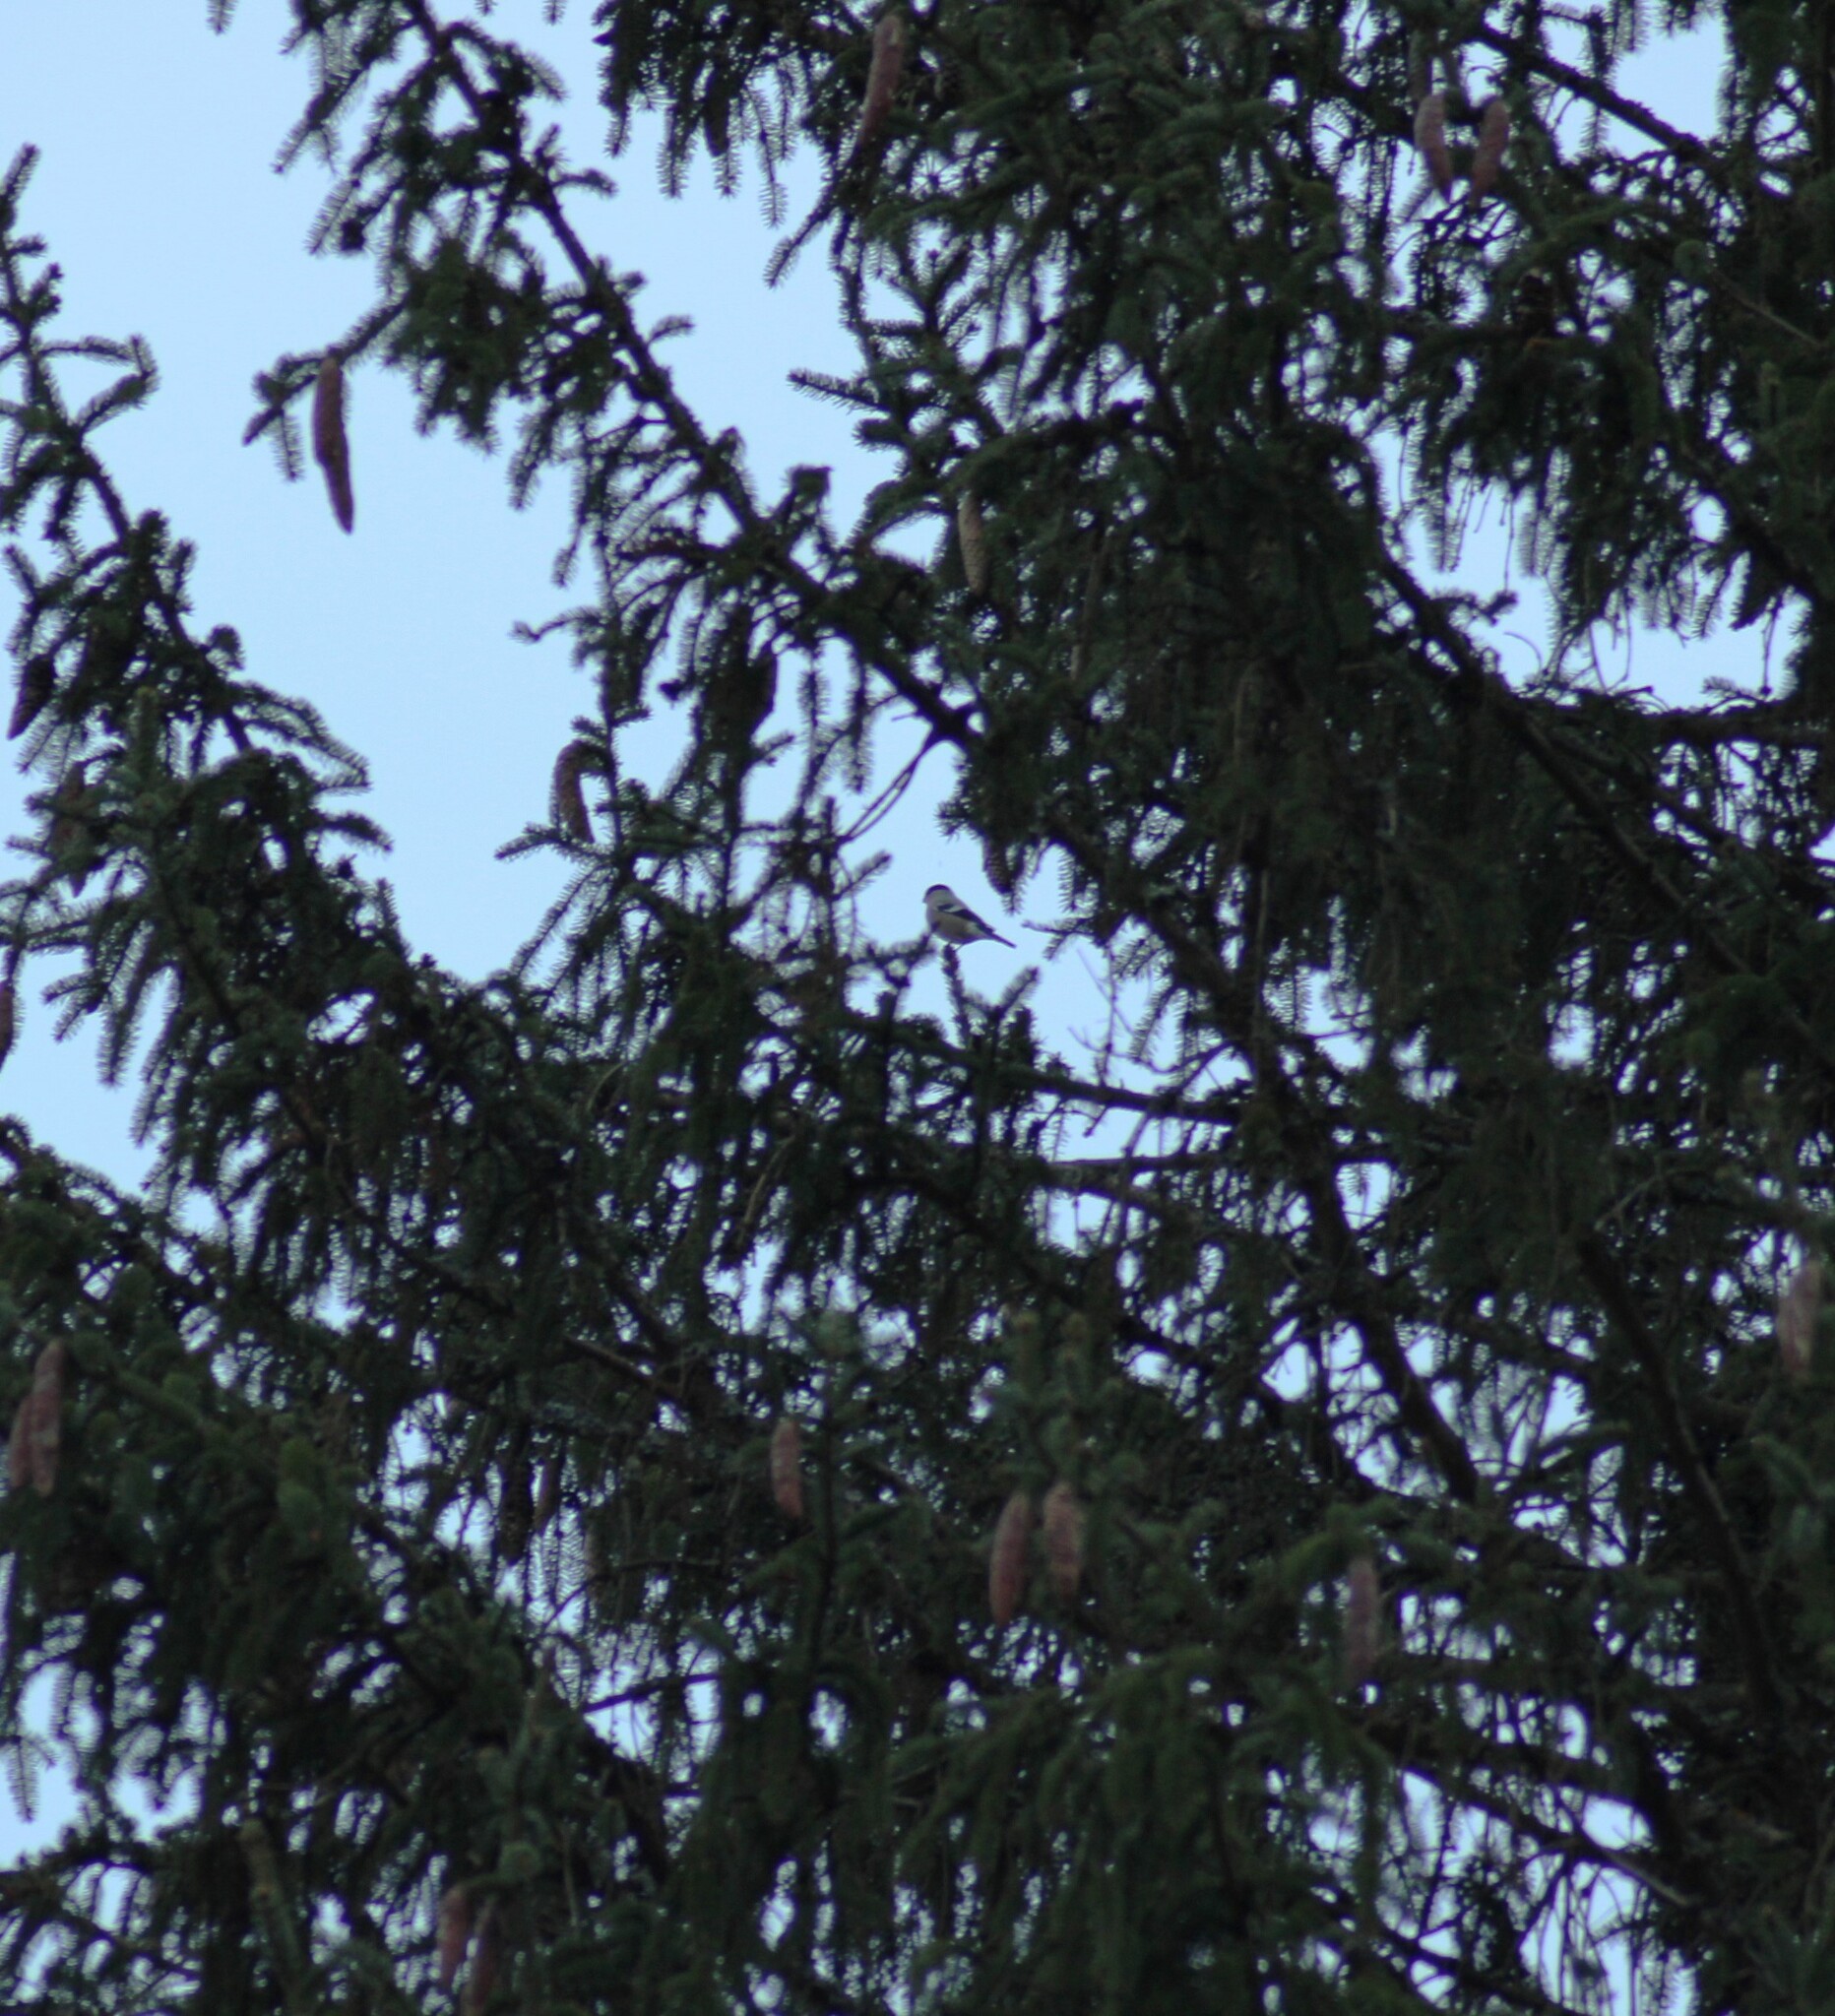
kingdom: Animalia
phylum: Chordata
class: Aves
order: Passeriformes
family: Fringillidae
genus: Pyrrhula
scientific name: Pyrrhula pyrrhula
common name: Eurasian bullfinch
